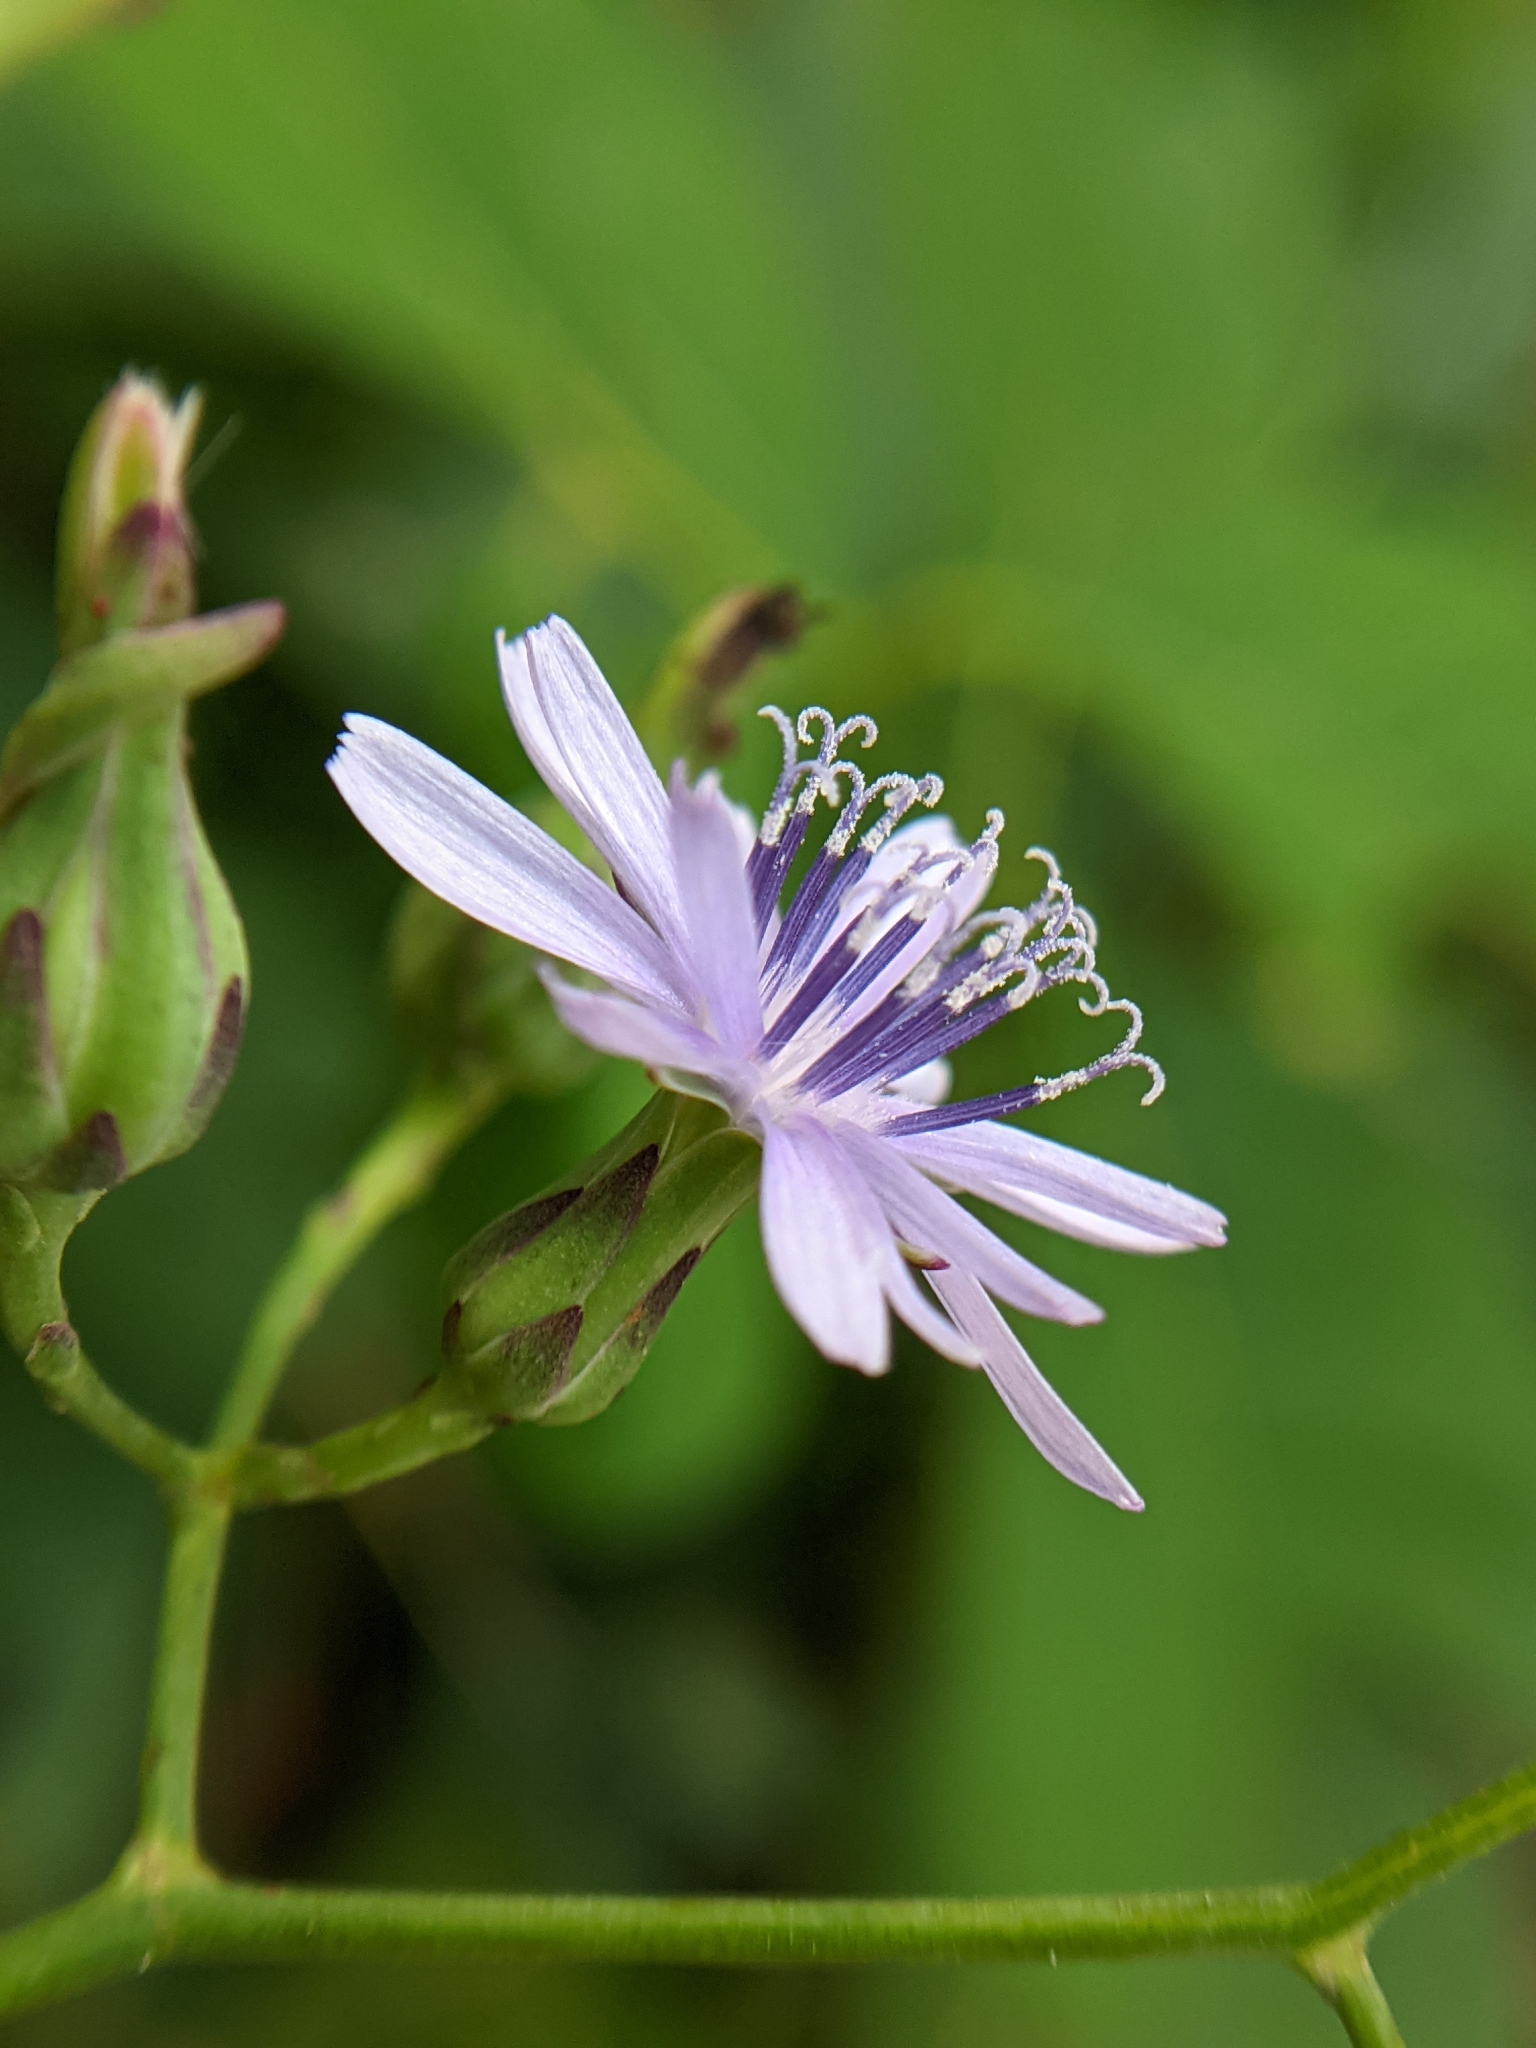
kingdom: Plantae
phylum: Tracheophyta
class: Magnoliopsida
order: Asterales
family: Asteraceae
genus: Lactuca
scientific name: Lactuca floridana
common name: Woodland lettuce
